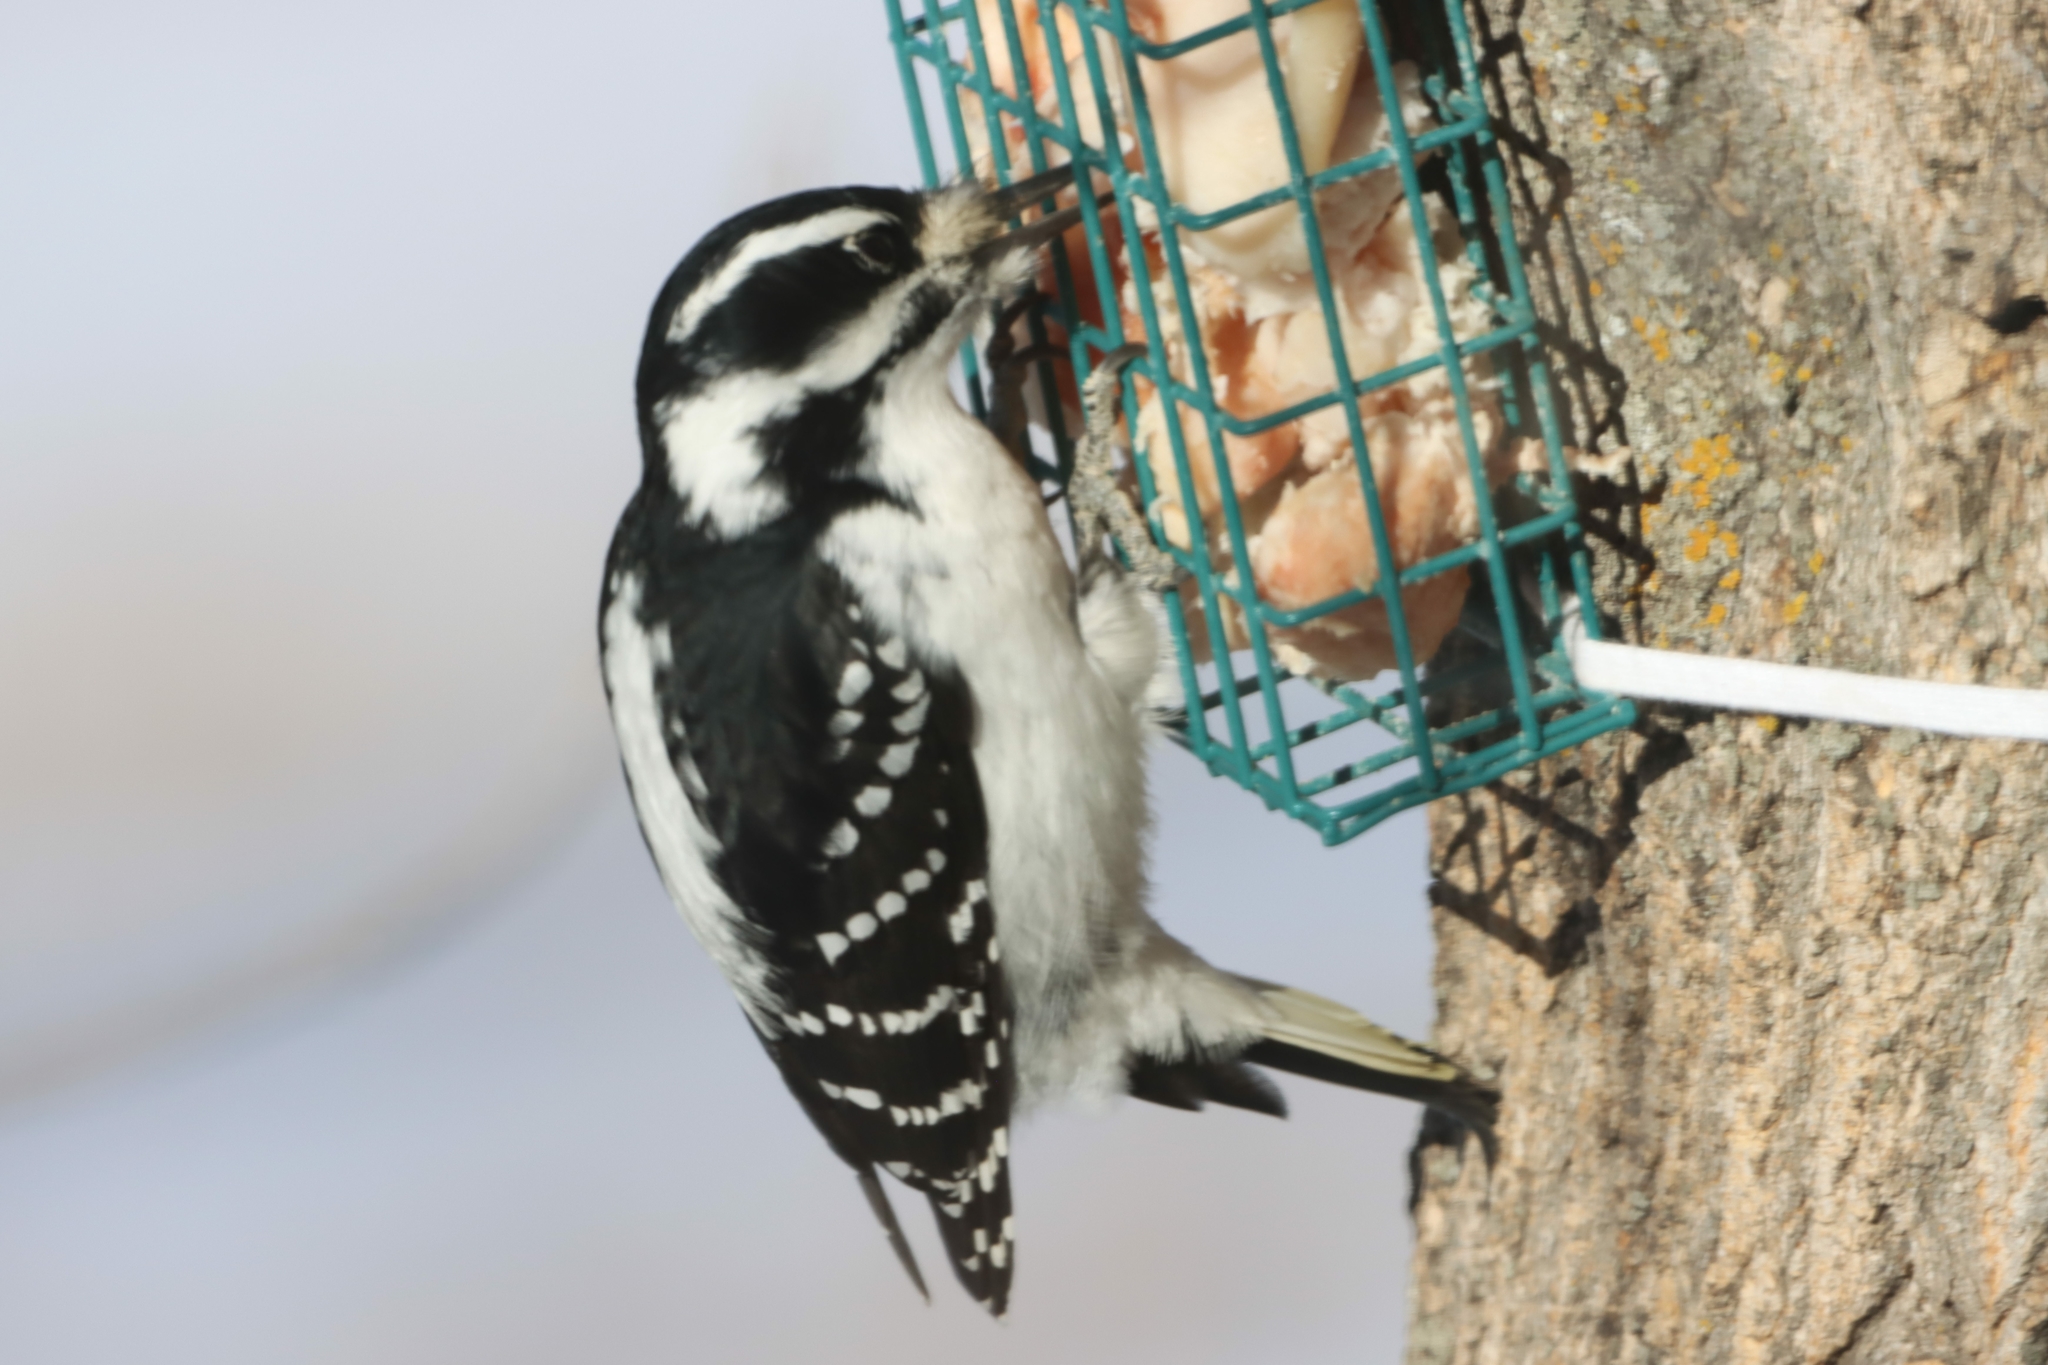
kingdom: Animalia
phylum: Chordata
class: Aves
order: Piciformes
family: Picidae
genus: Leuconotopicus
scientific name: Leuconotopicus villosus
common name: Hairy woodpecker
